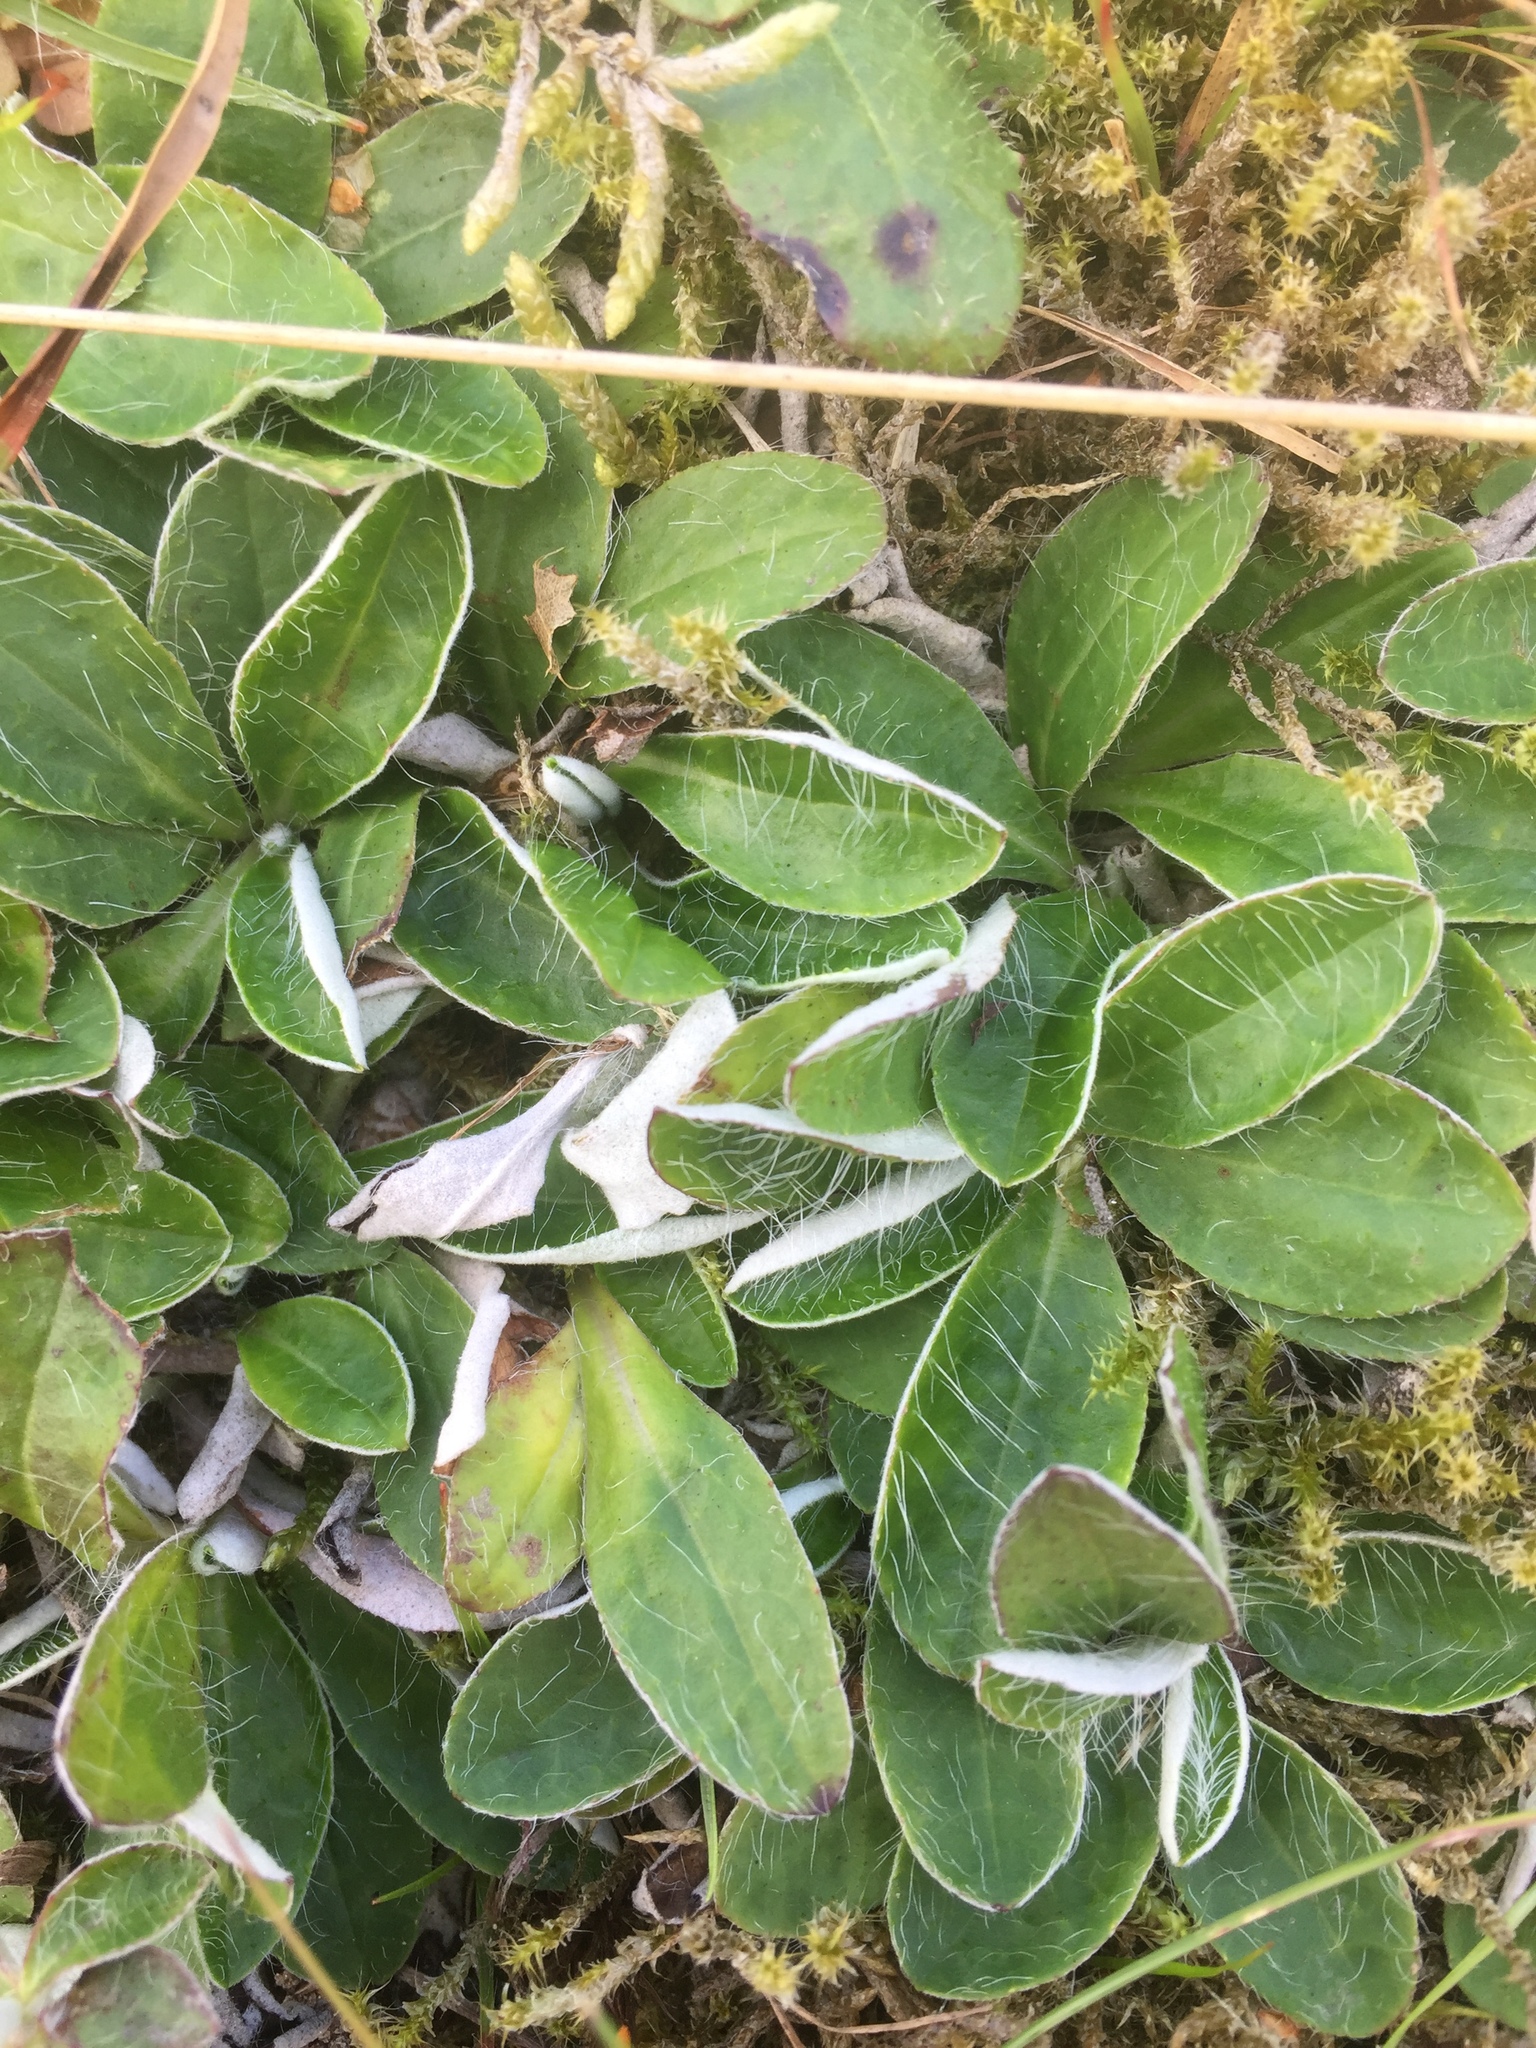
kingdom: Plantae
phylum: Tracheophyta
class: Magnoliopsida
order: Asterales
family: Asteraceae
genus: Pilosella
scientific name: Pilosella officinarum
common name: Mouse-ear hawkweed
